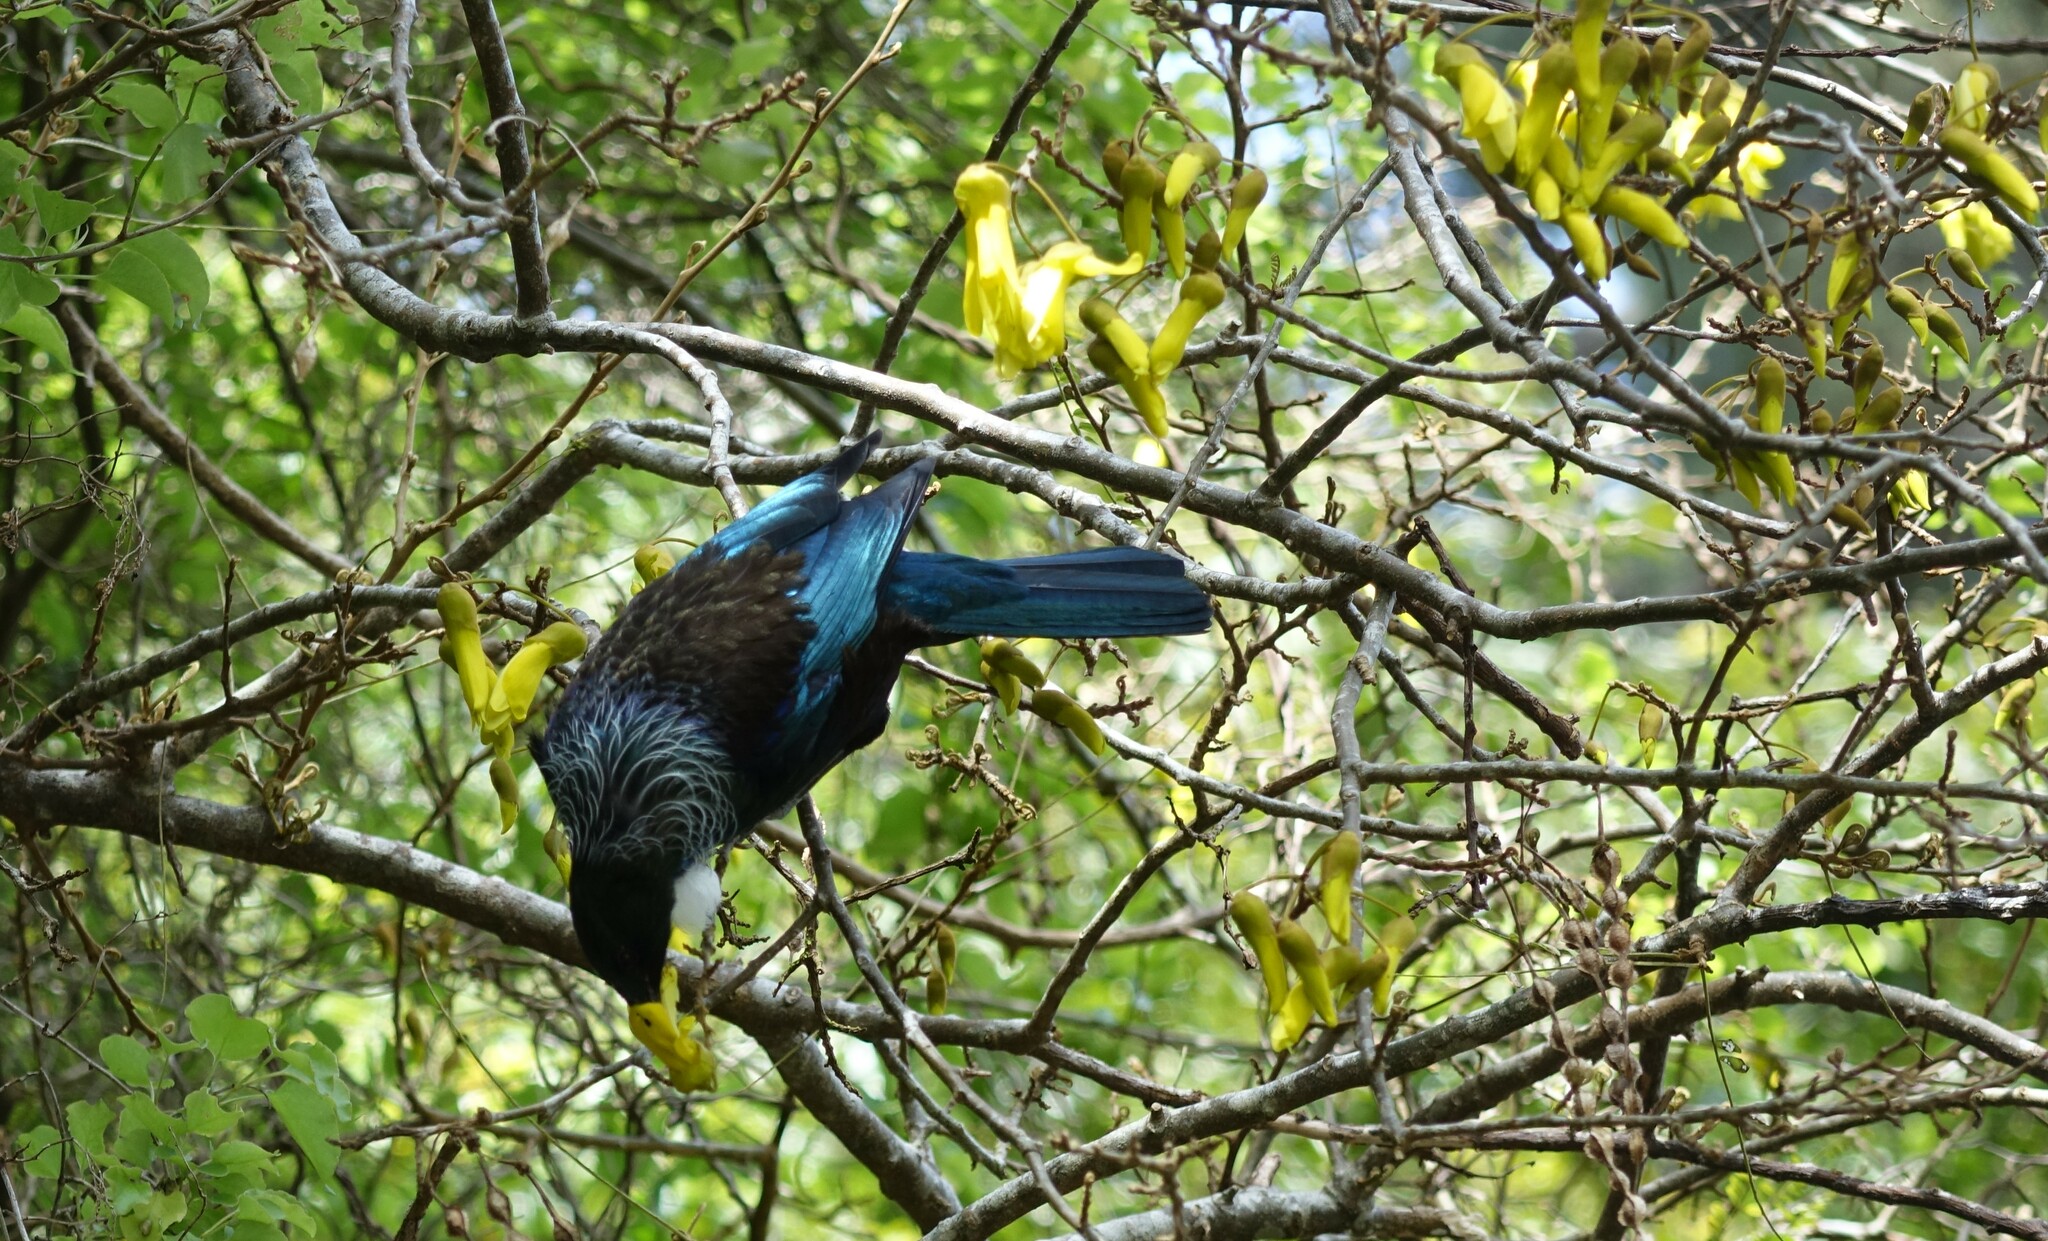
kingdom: Animalia
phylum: Chordata
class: Aves
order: Passeriformes
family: Meliphagidae
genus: Prosthemadera
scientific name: Prosthemadera novaeseelandiae
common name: Tui
